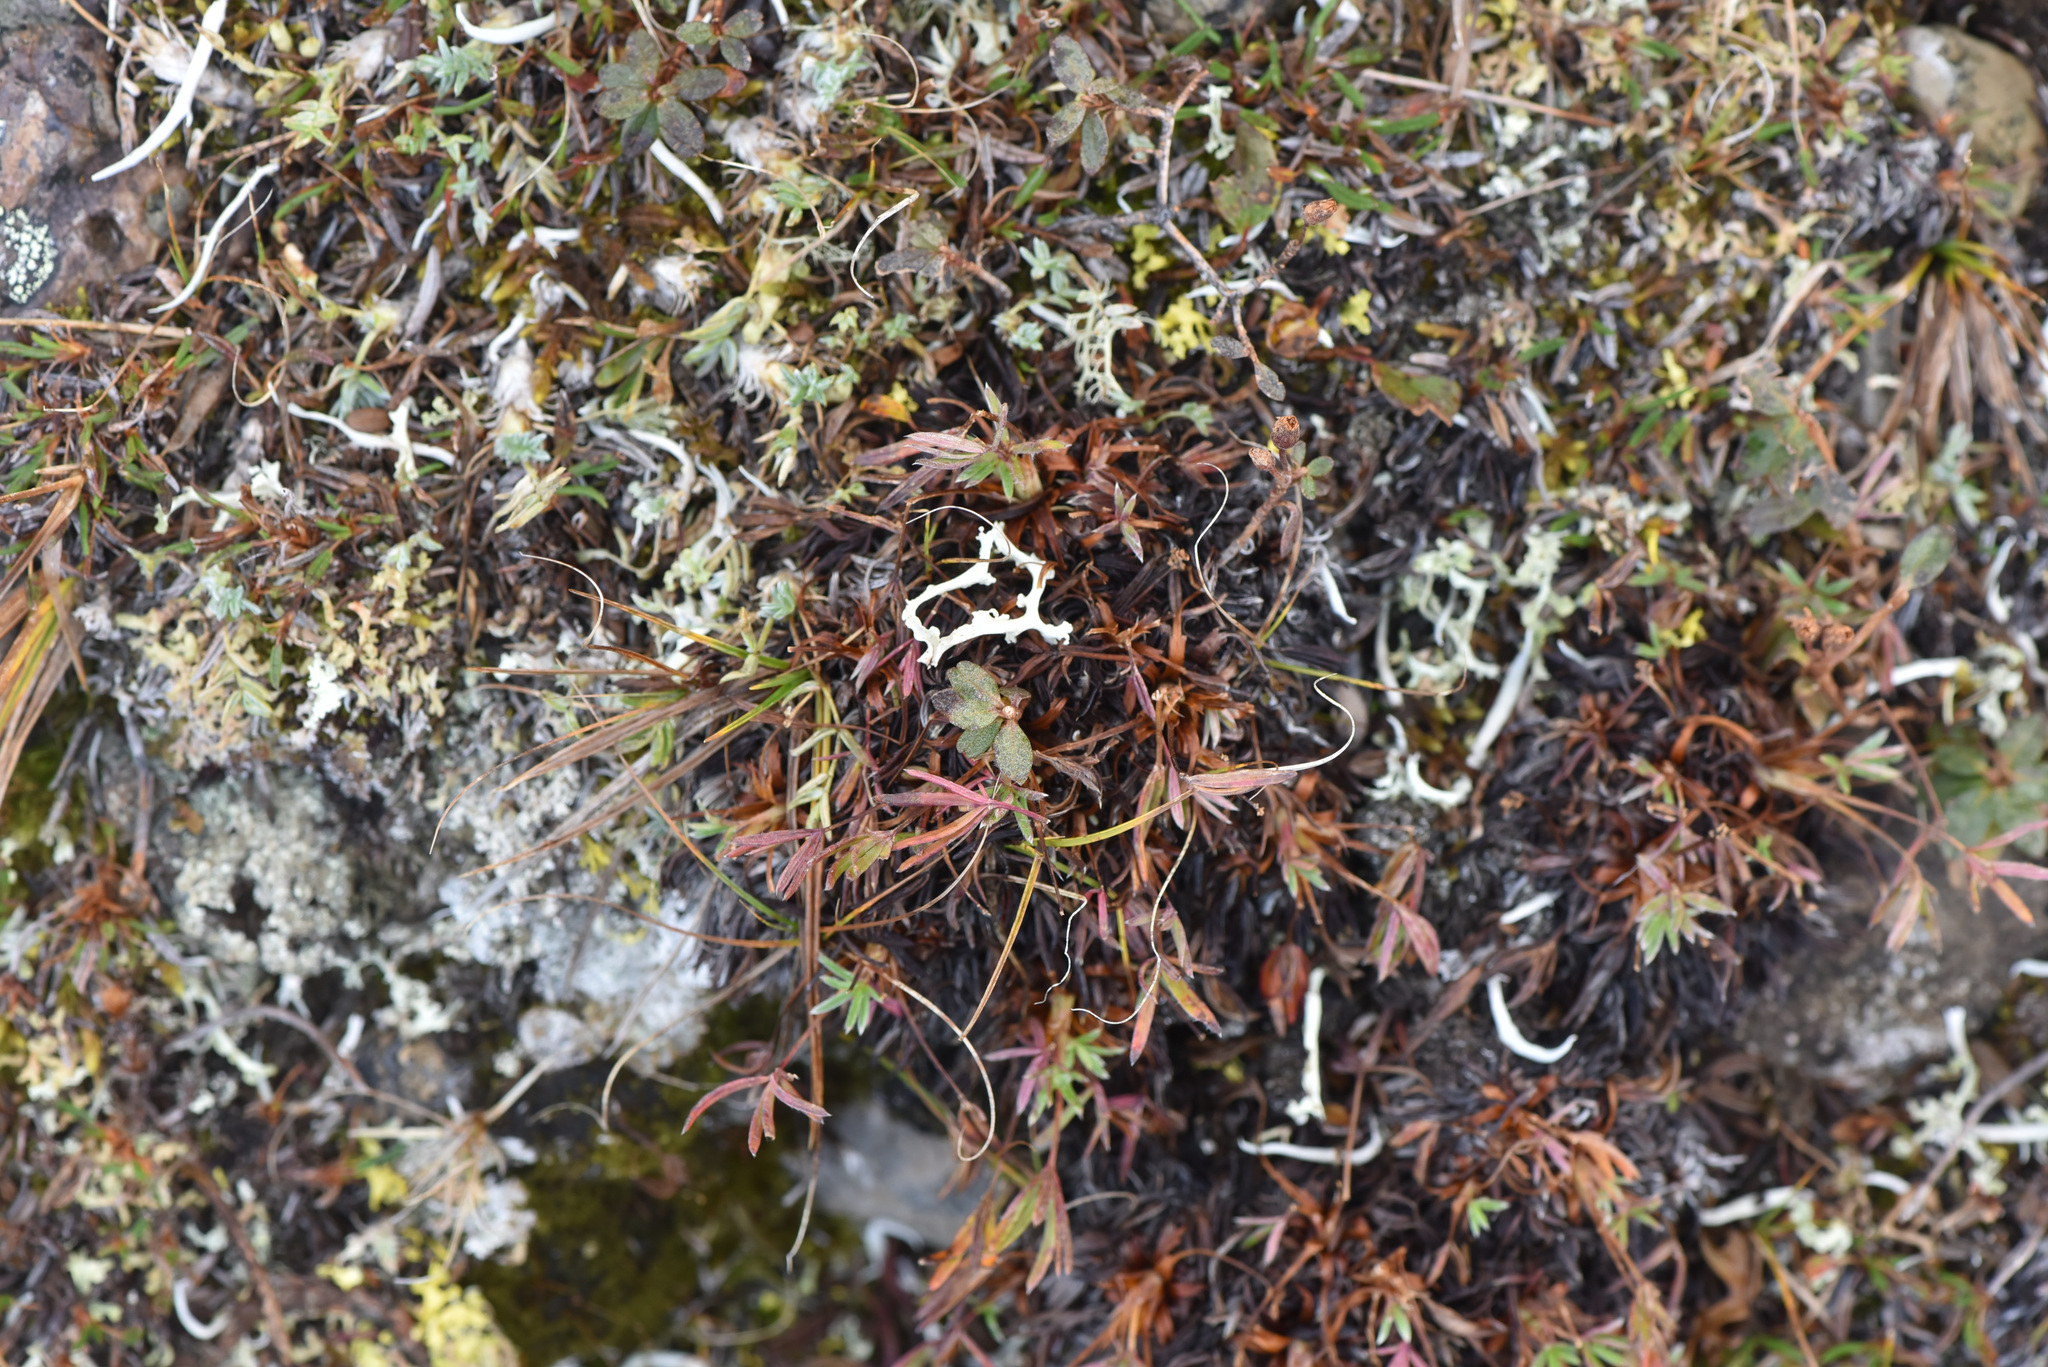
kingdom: Plantae
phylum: Tracheophyta
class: Magnoliopsida
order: Rosales
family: Rosaceae
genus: Potentilla
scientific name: Potentilla biflora
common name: Two-flowered cinquefoil
